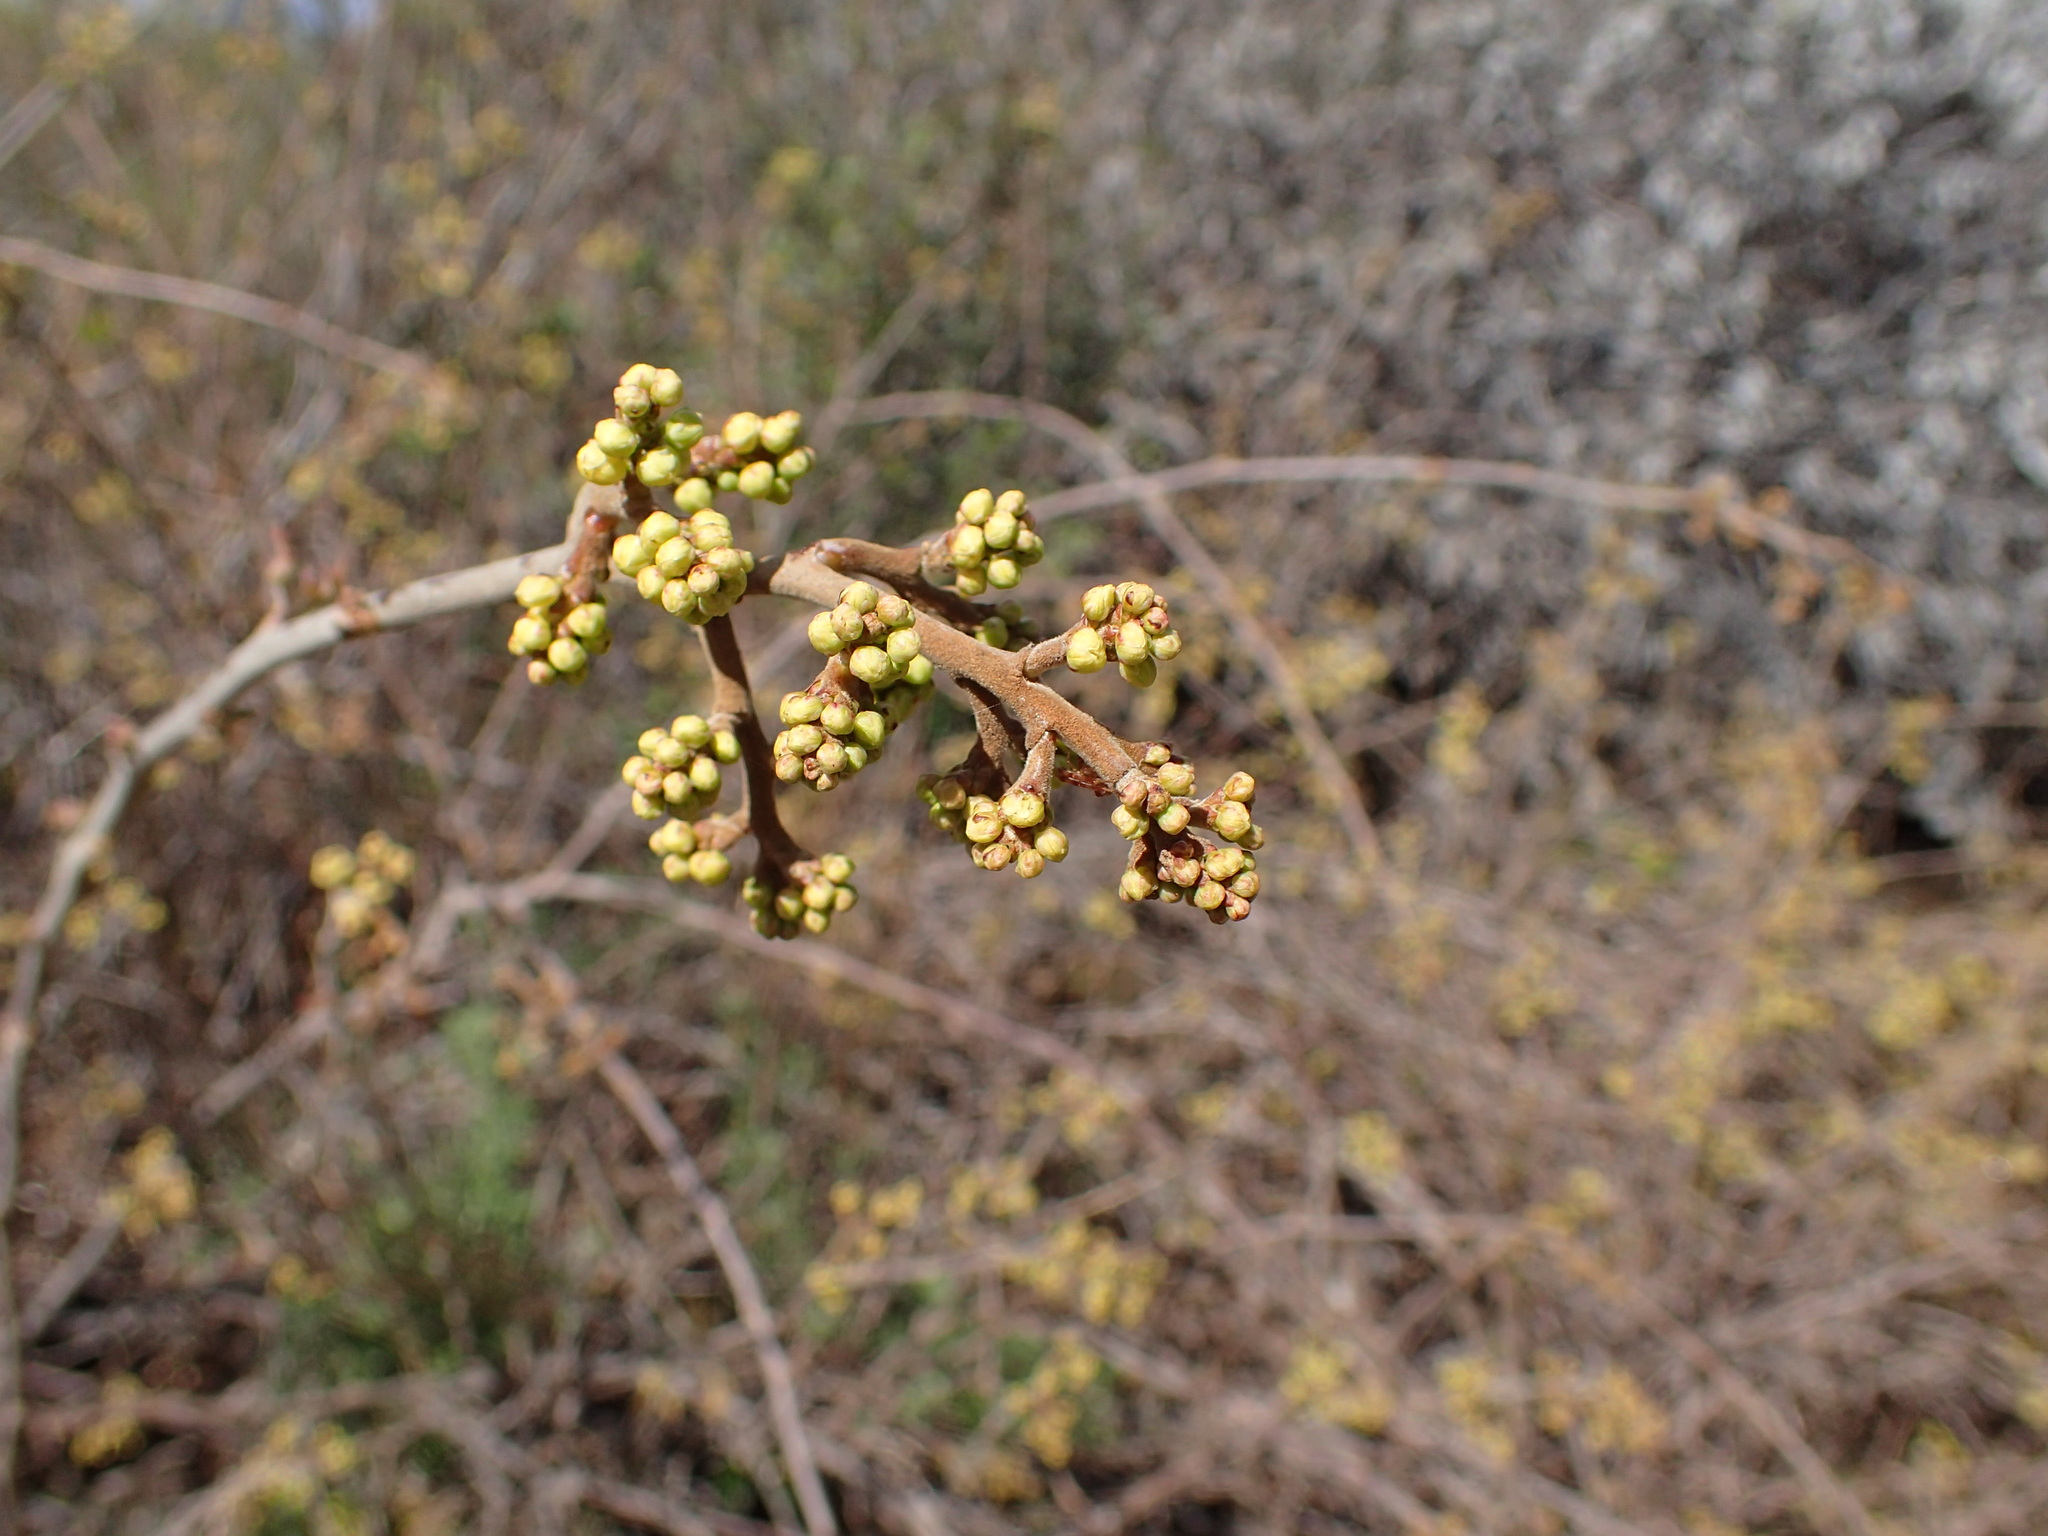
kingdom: Plantae
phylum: Tracheophyta
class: Magnoliopsida
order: Sapindales
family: Anacardiaceae
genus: Rhus
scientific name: Rhus aromatica
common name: Aromatic sumac
